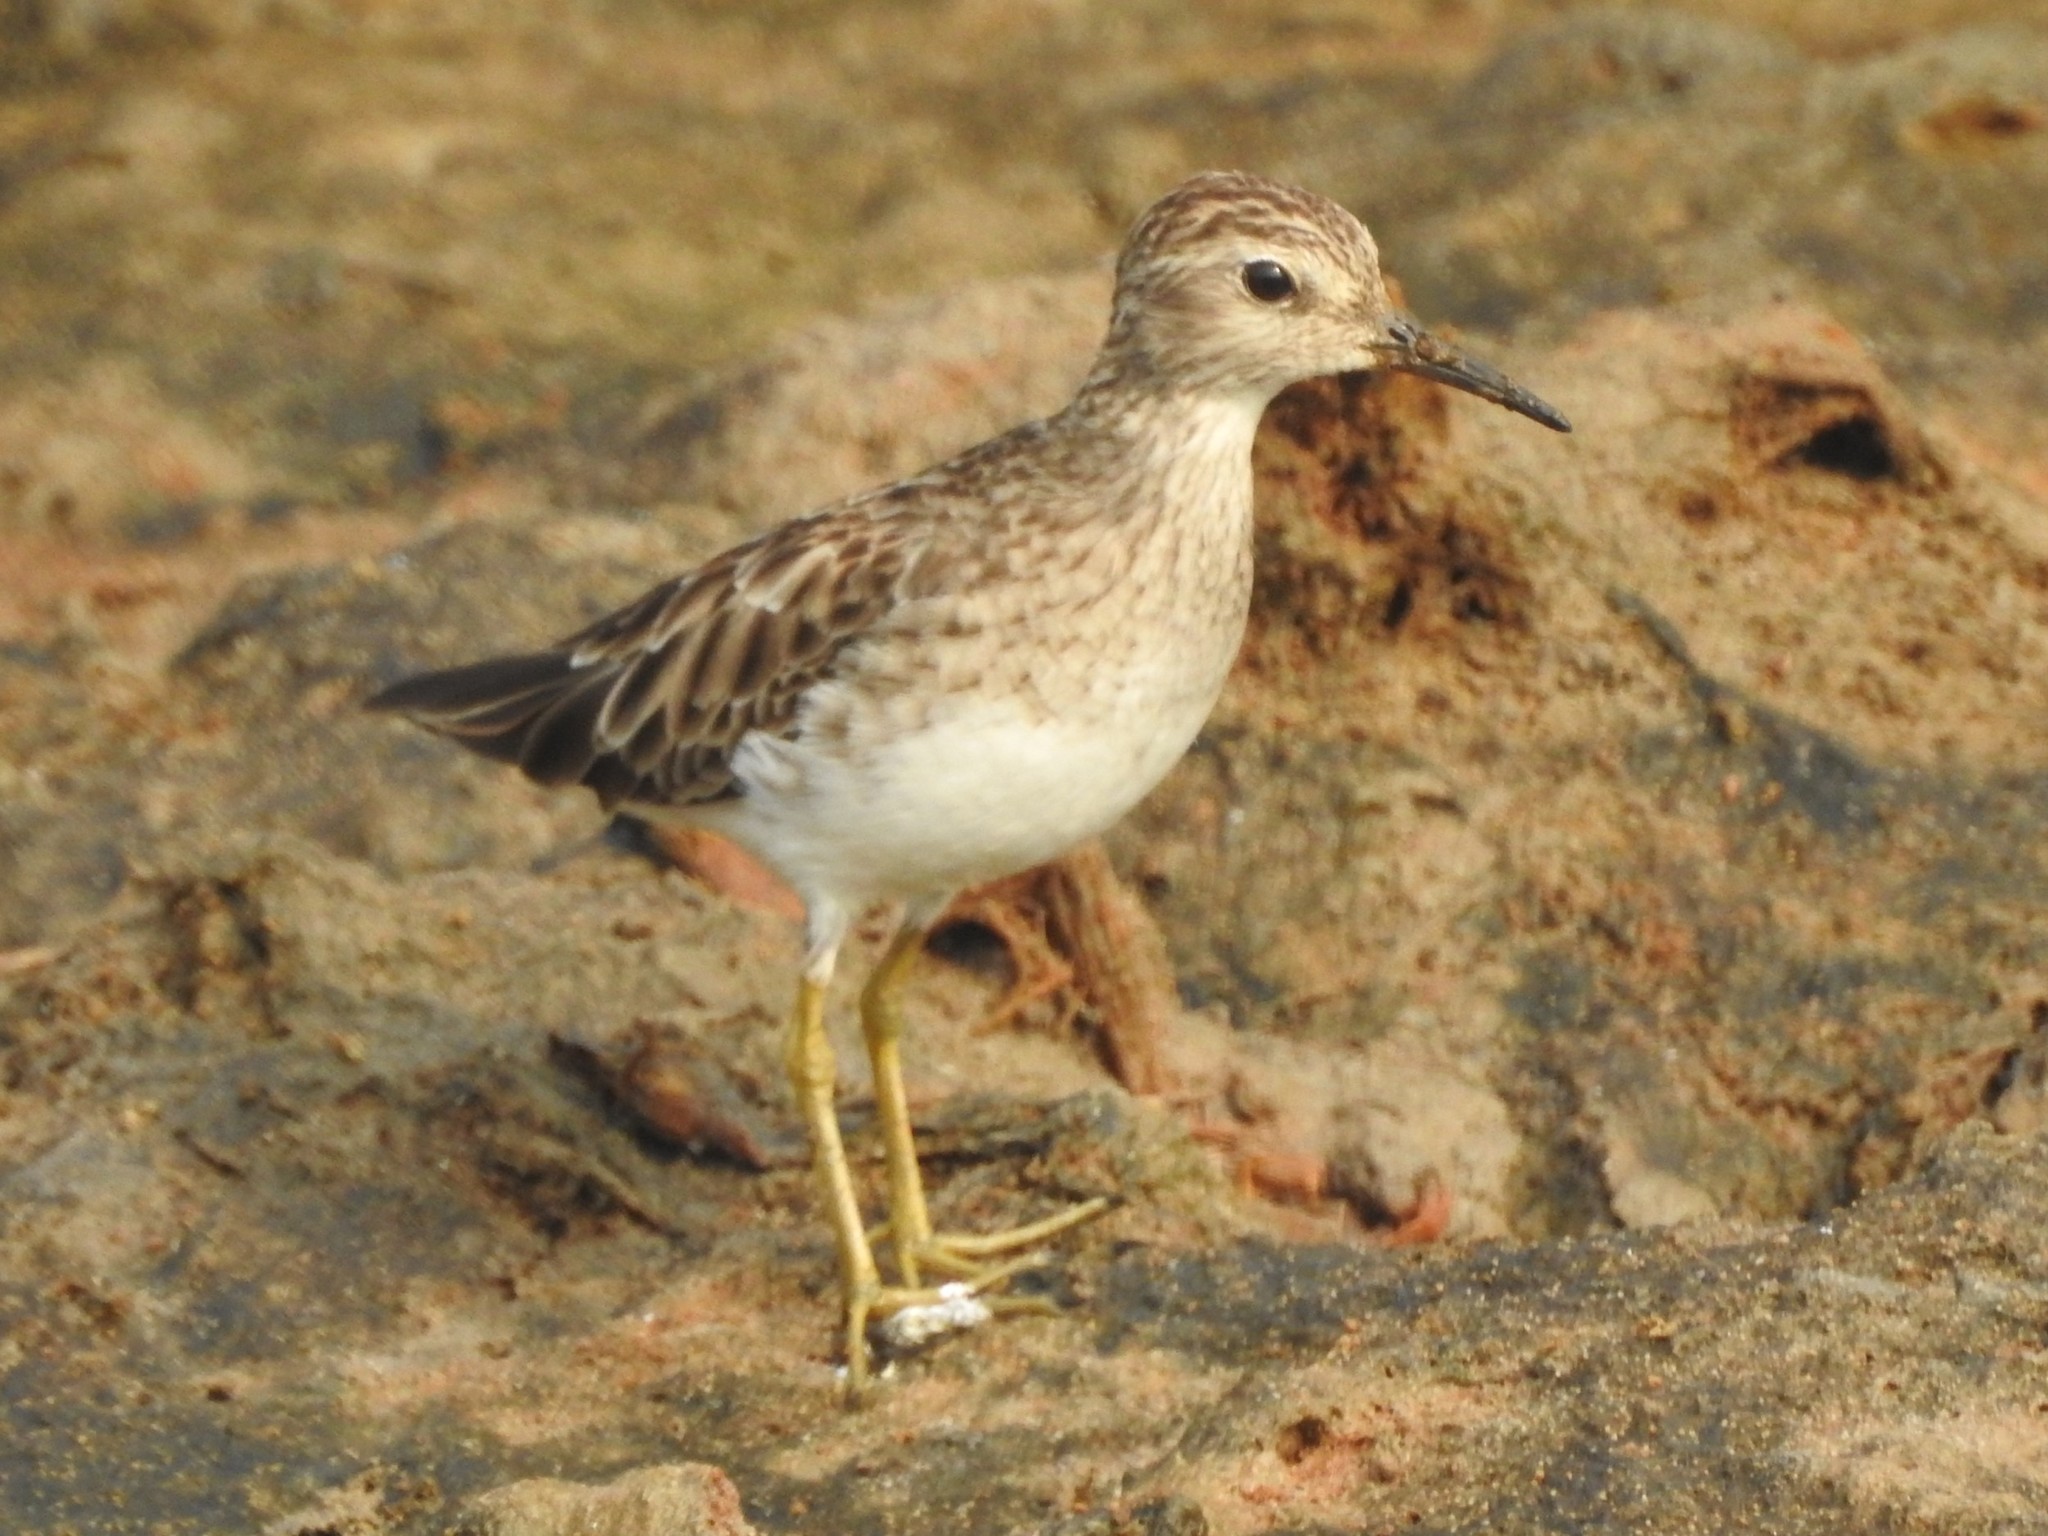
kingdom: Animalia
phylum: Chordata
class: Aves
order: Charadriiformes
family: Scolopacidae
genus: Calidris
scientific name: Calidris subminuta
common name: Long-toed stint
